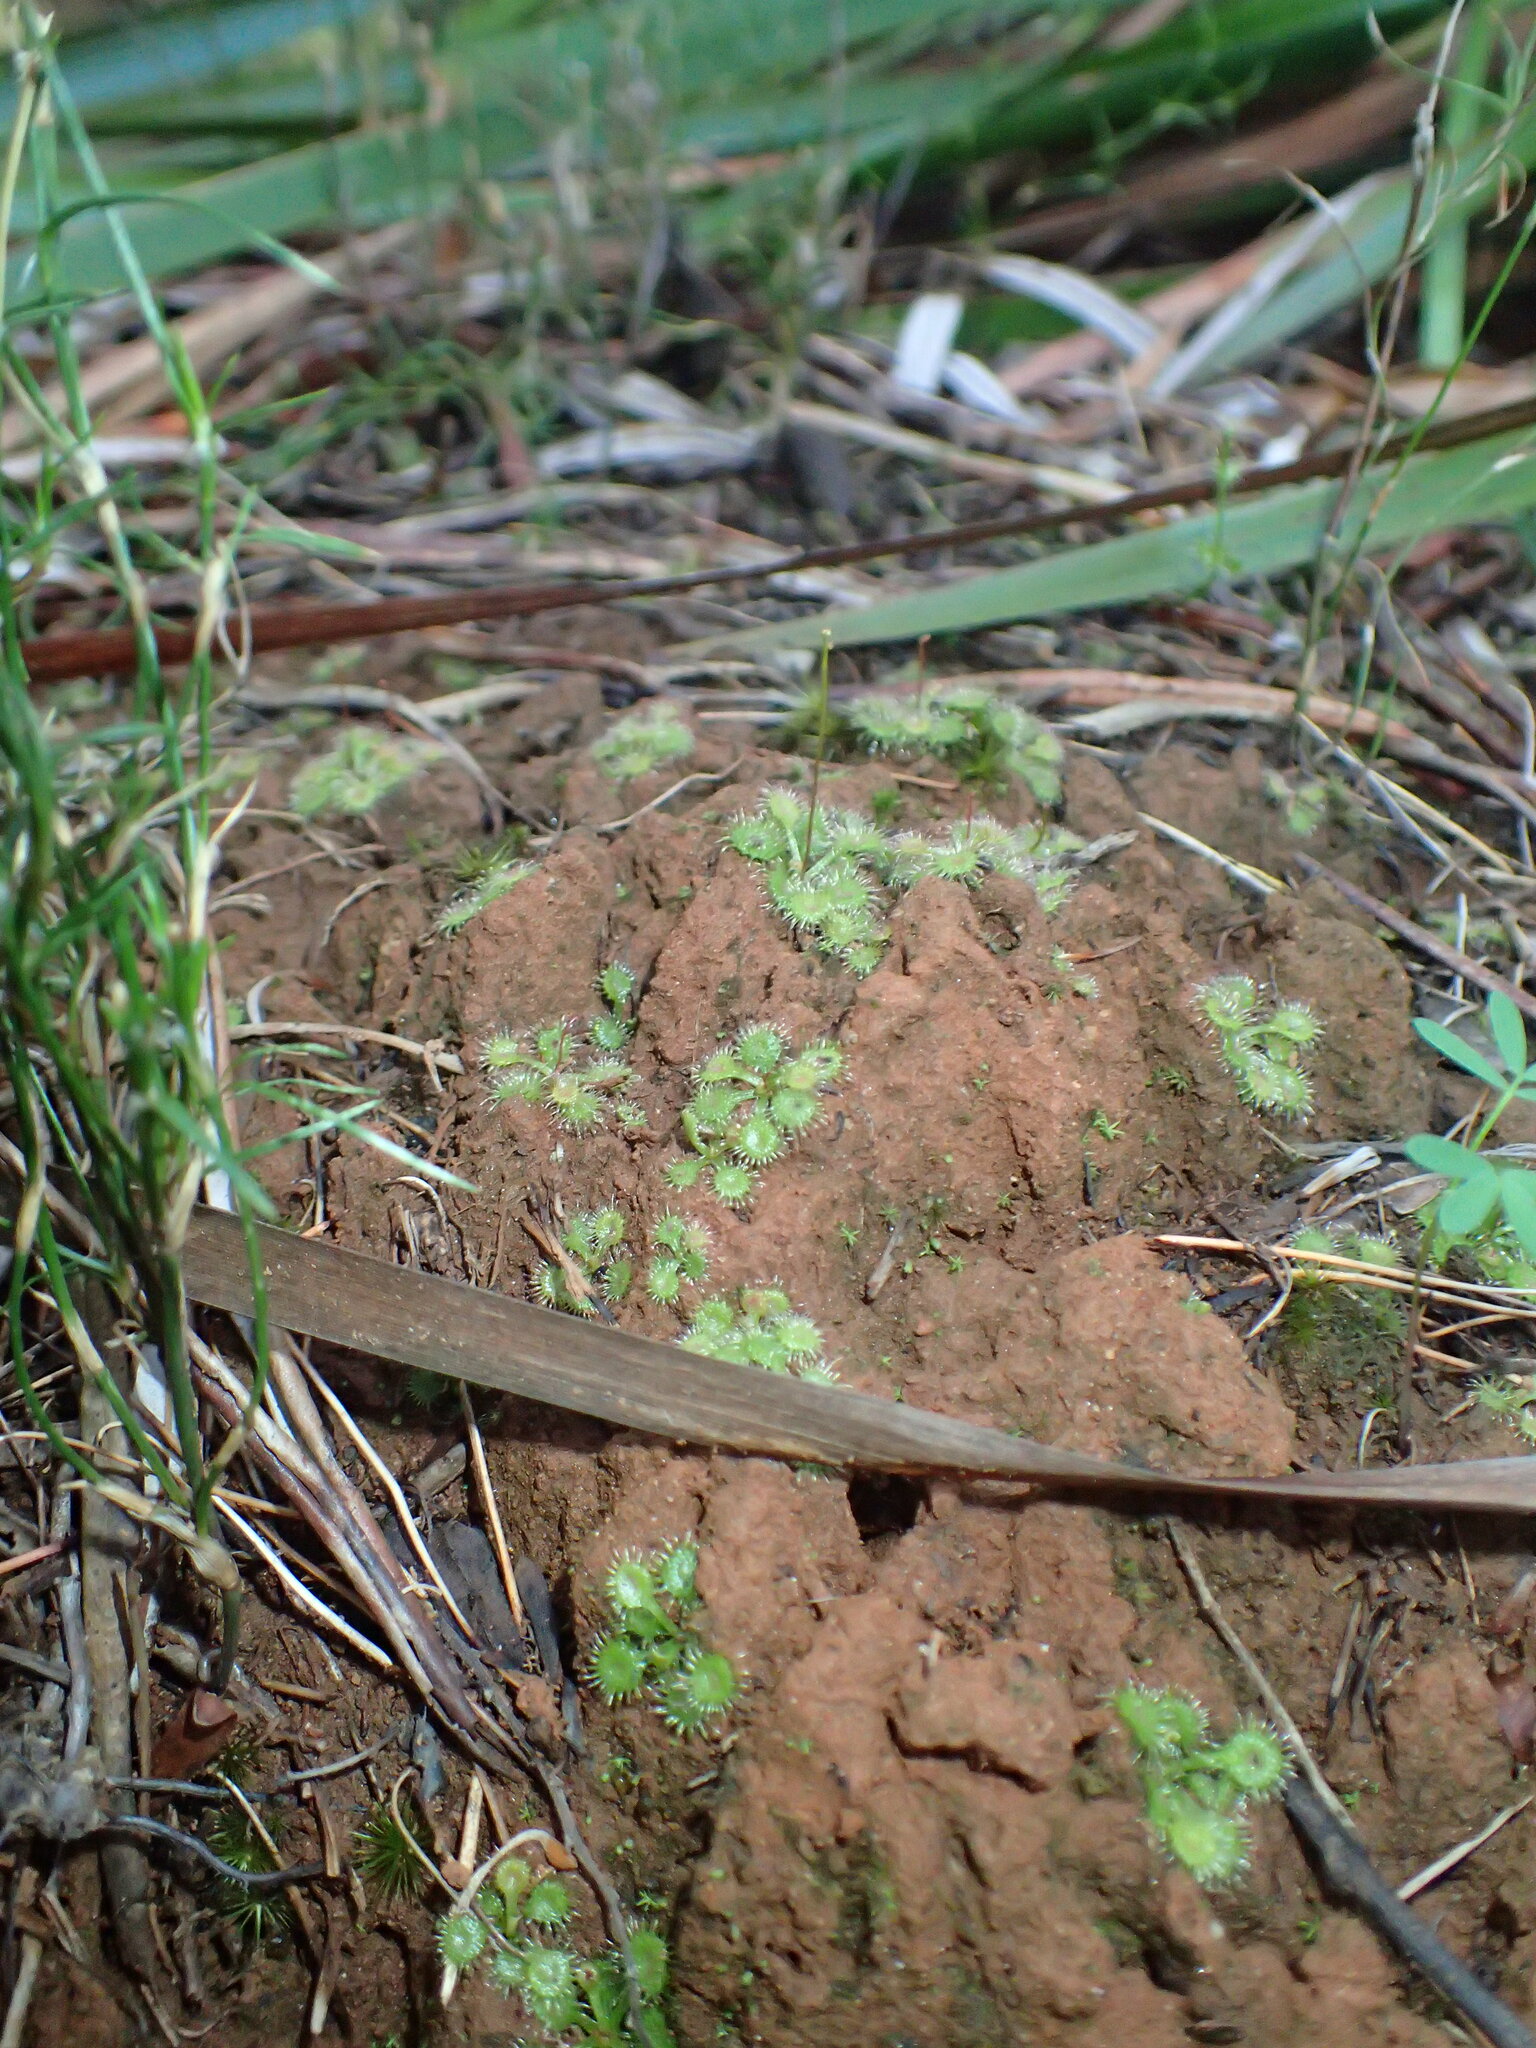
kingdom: Plantae
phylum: Tracheophyta
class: Magnoliopsida
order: Caryophyllales
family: Droseraceae
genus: Drosera
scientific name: Drosera modesta
